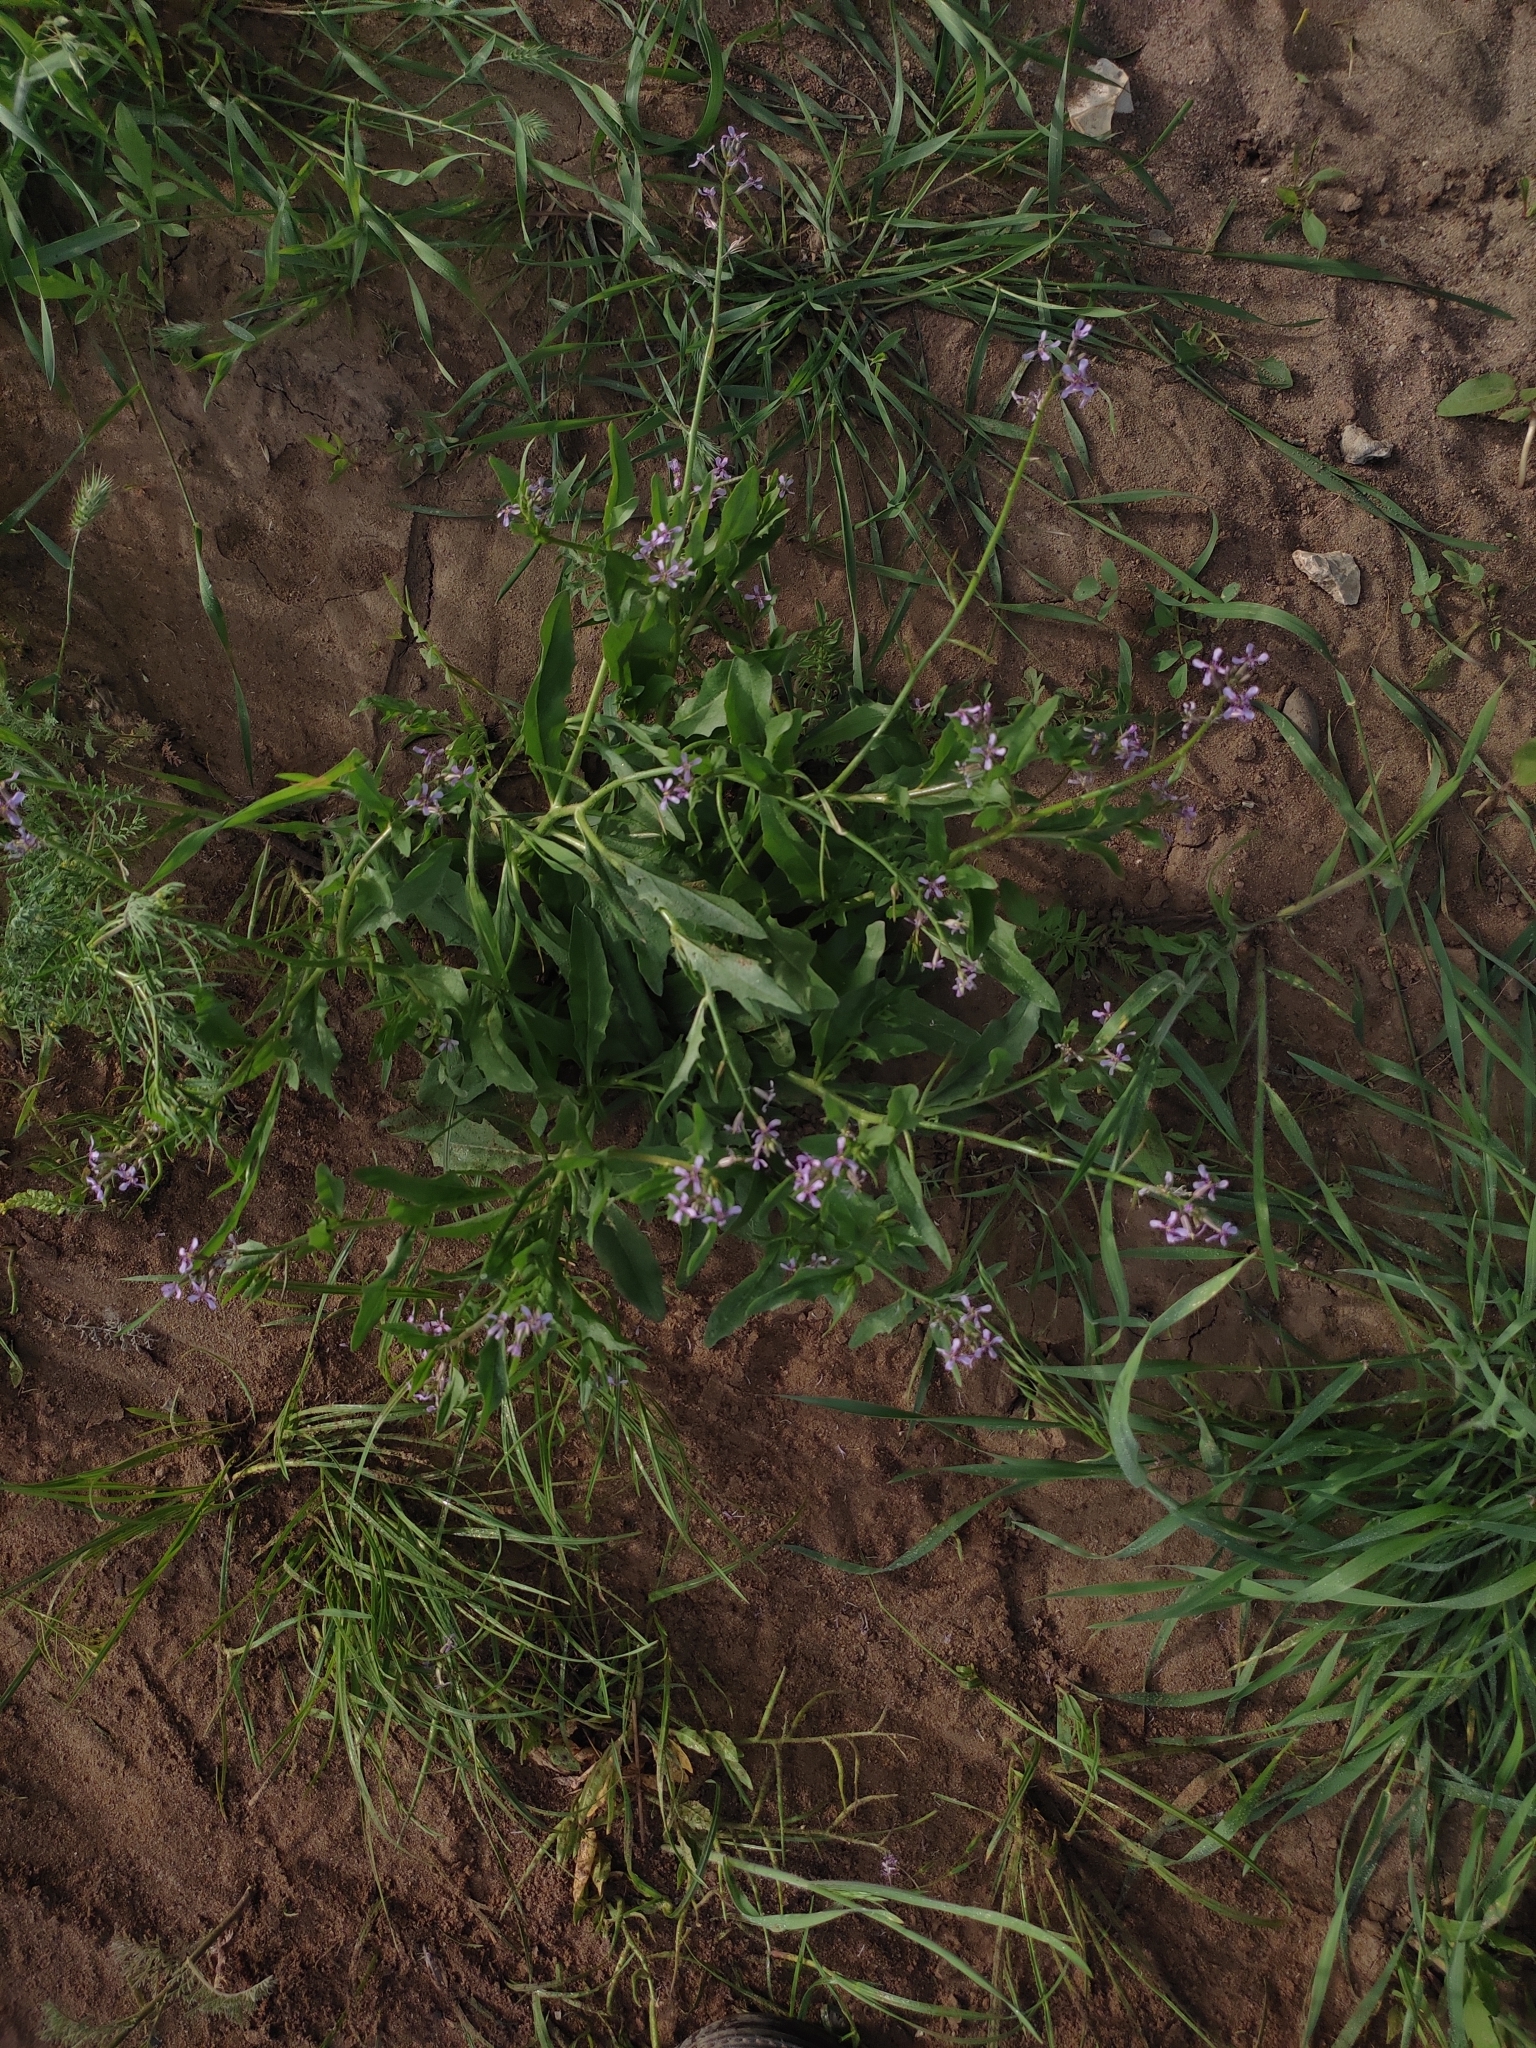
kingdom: Plantae
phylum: Tracheophyta
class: Magnoliopsida
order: Brassicales
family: Brassicaceae
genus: Chorispora
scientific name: Chorispora tenella
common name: Crossflower
